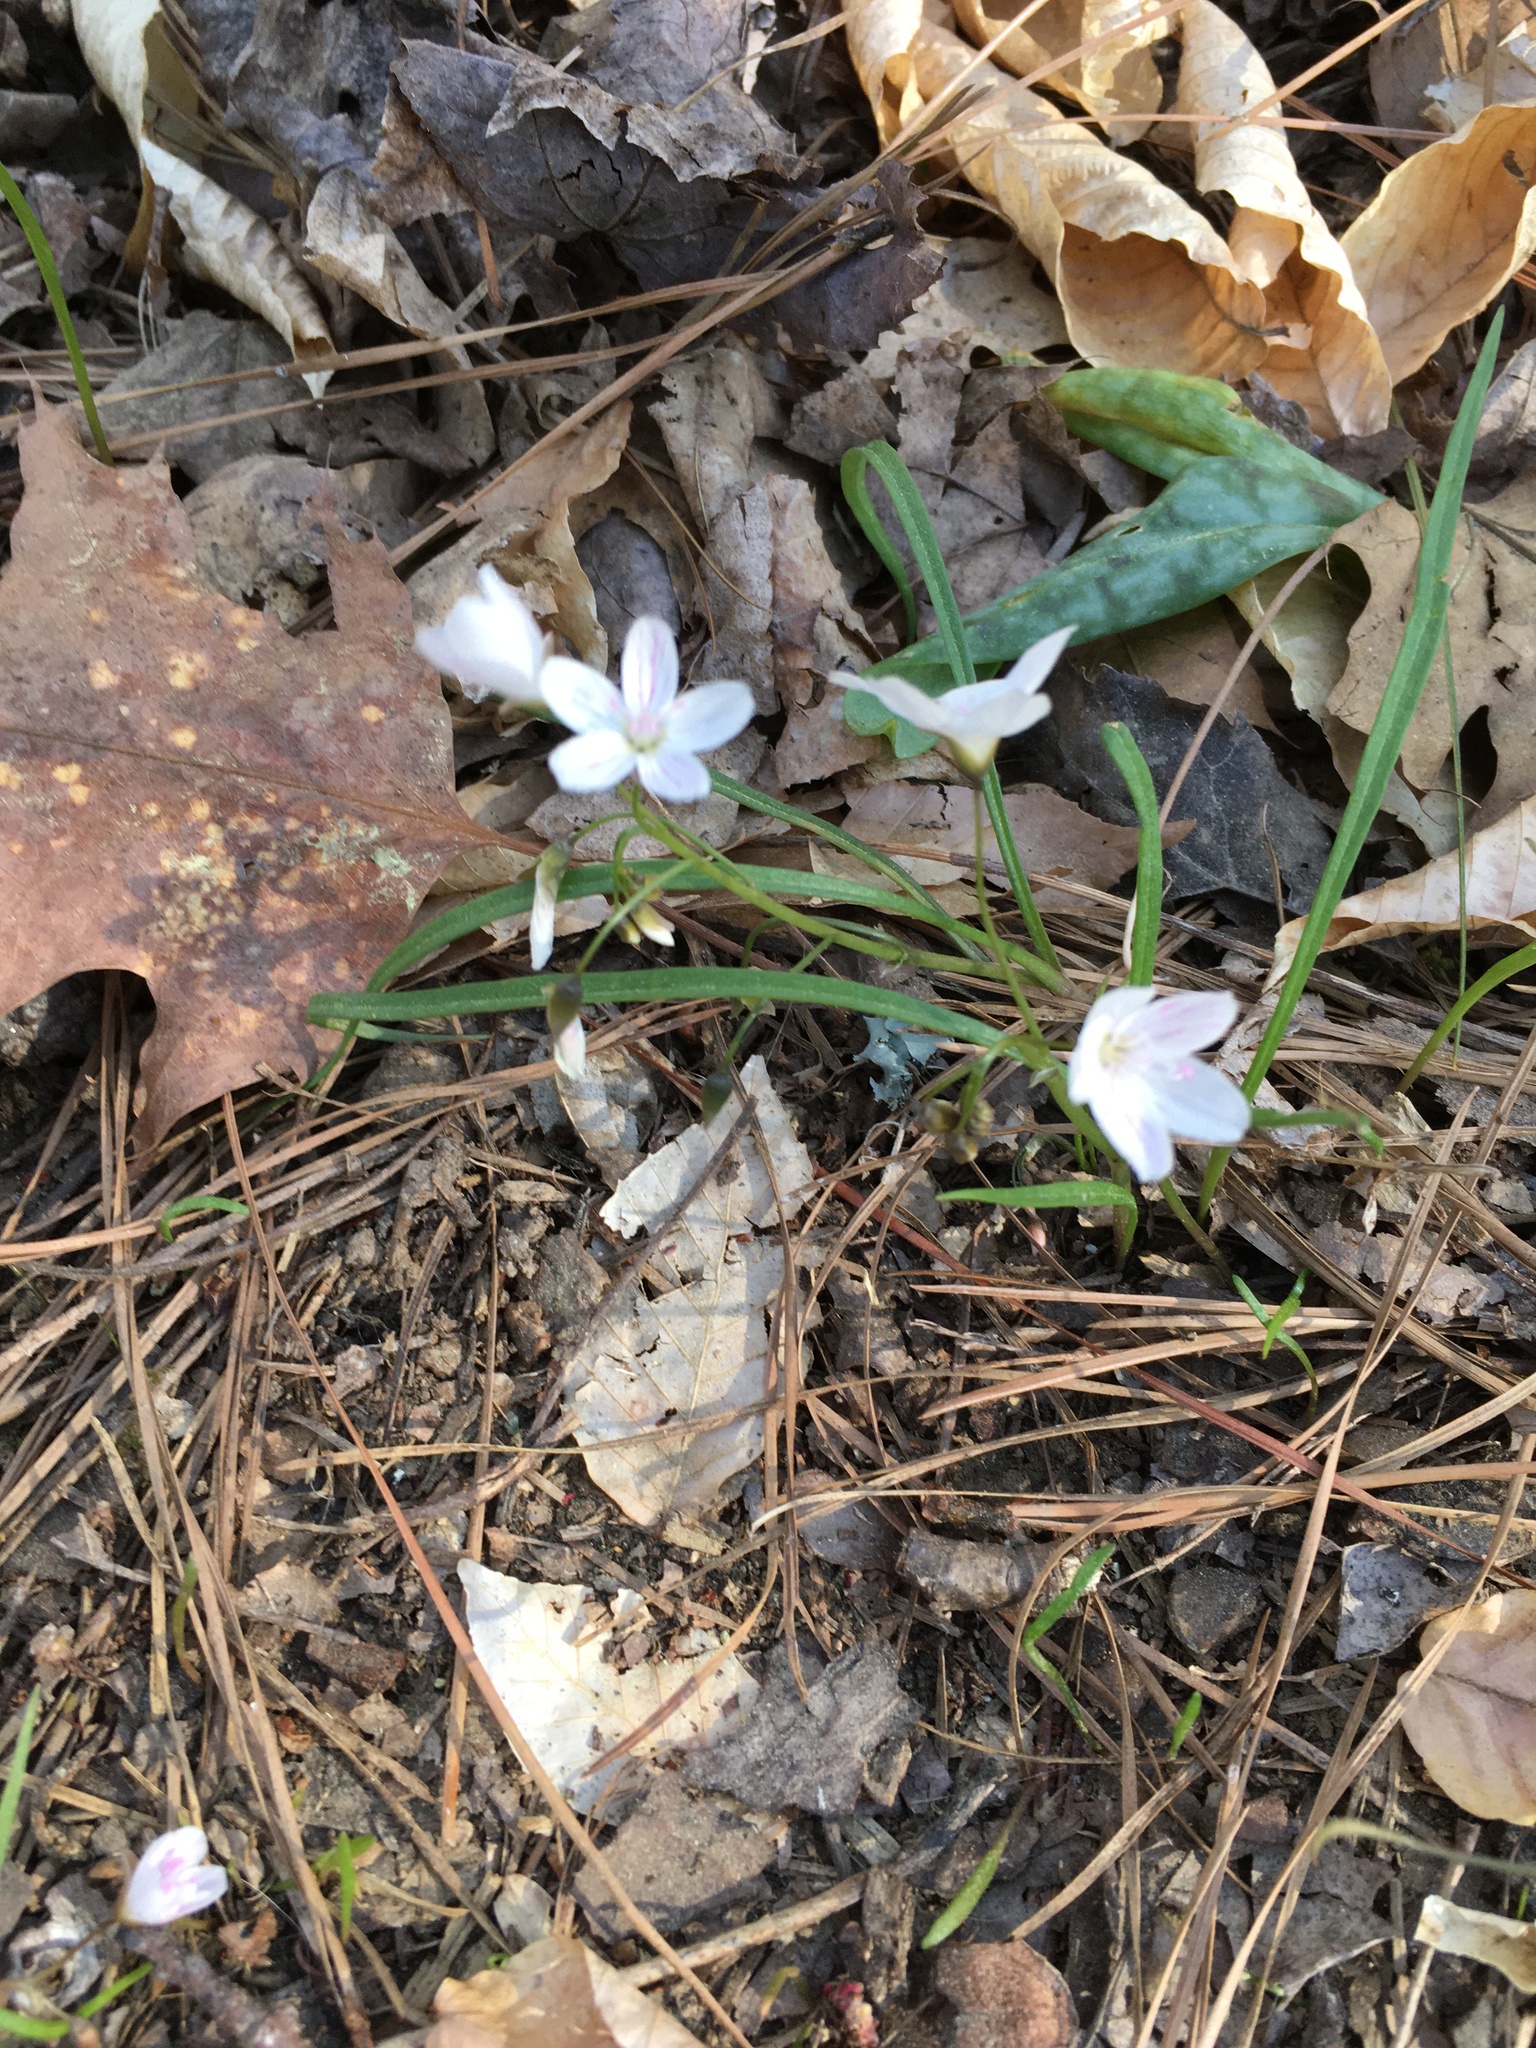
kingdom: Plantae
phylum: Tracheophyta
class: Magnoliopsida
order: Caryophyllales
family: Montiaceae
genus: Claytonia
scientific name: Claytonia virginica
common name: Virginia springbeauty
